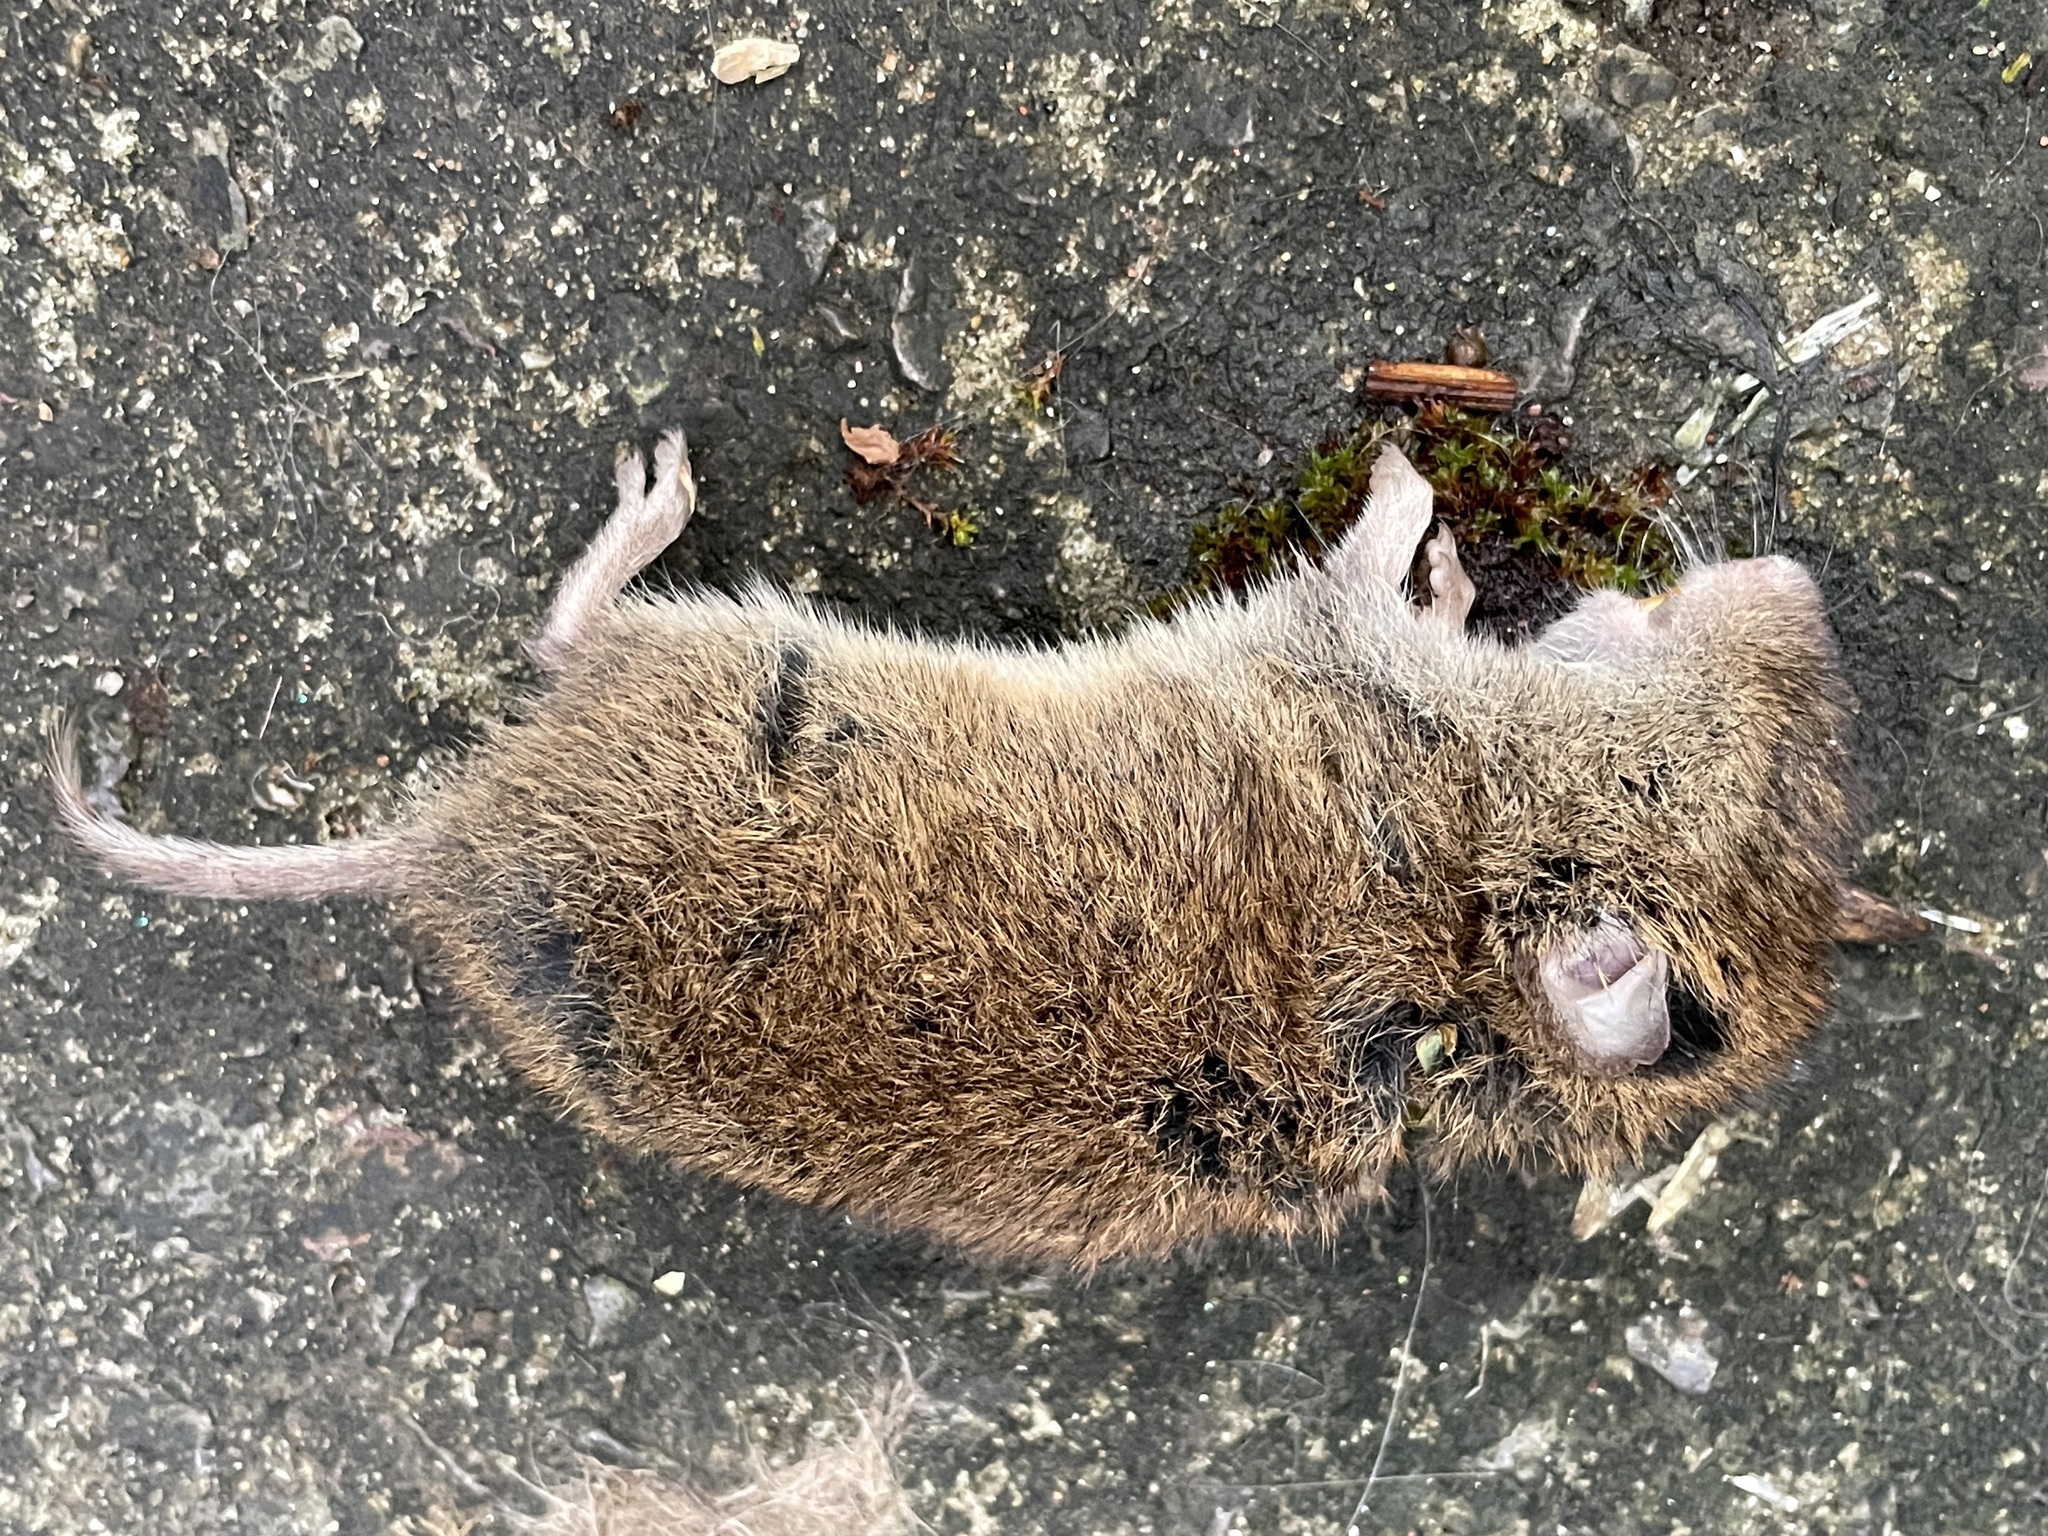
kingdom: Animalia
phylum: Chordata
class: Mammalia
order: Rodentia
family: Cricetidae
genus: Microtus
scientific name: Microtus agrestis
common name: Field vole
